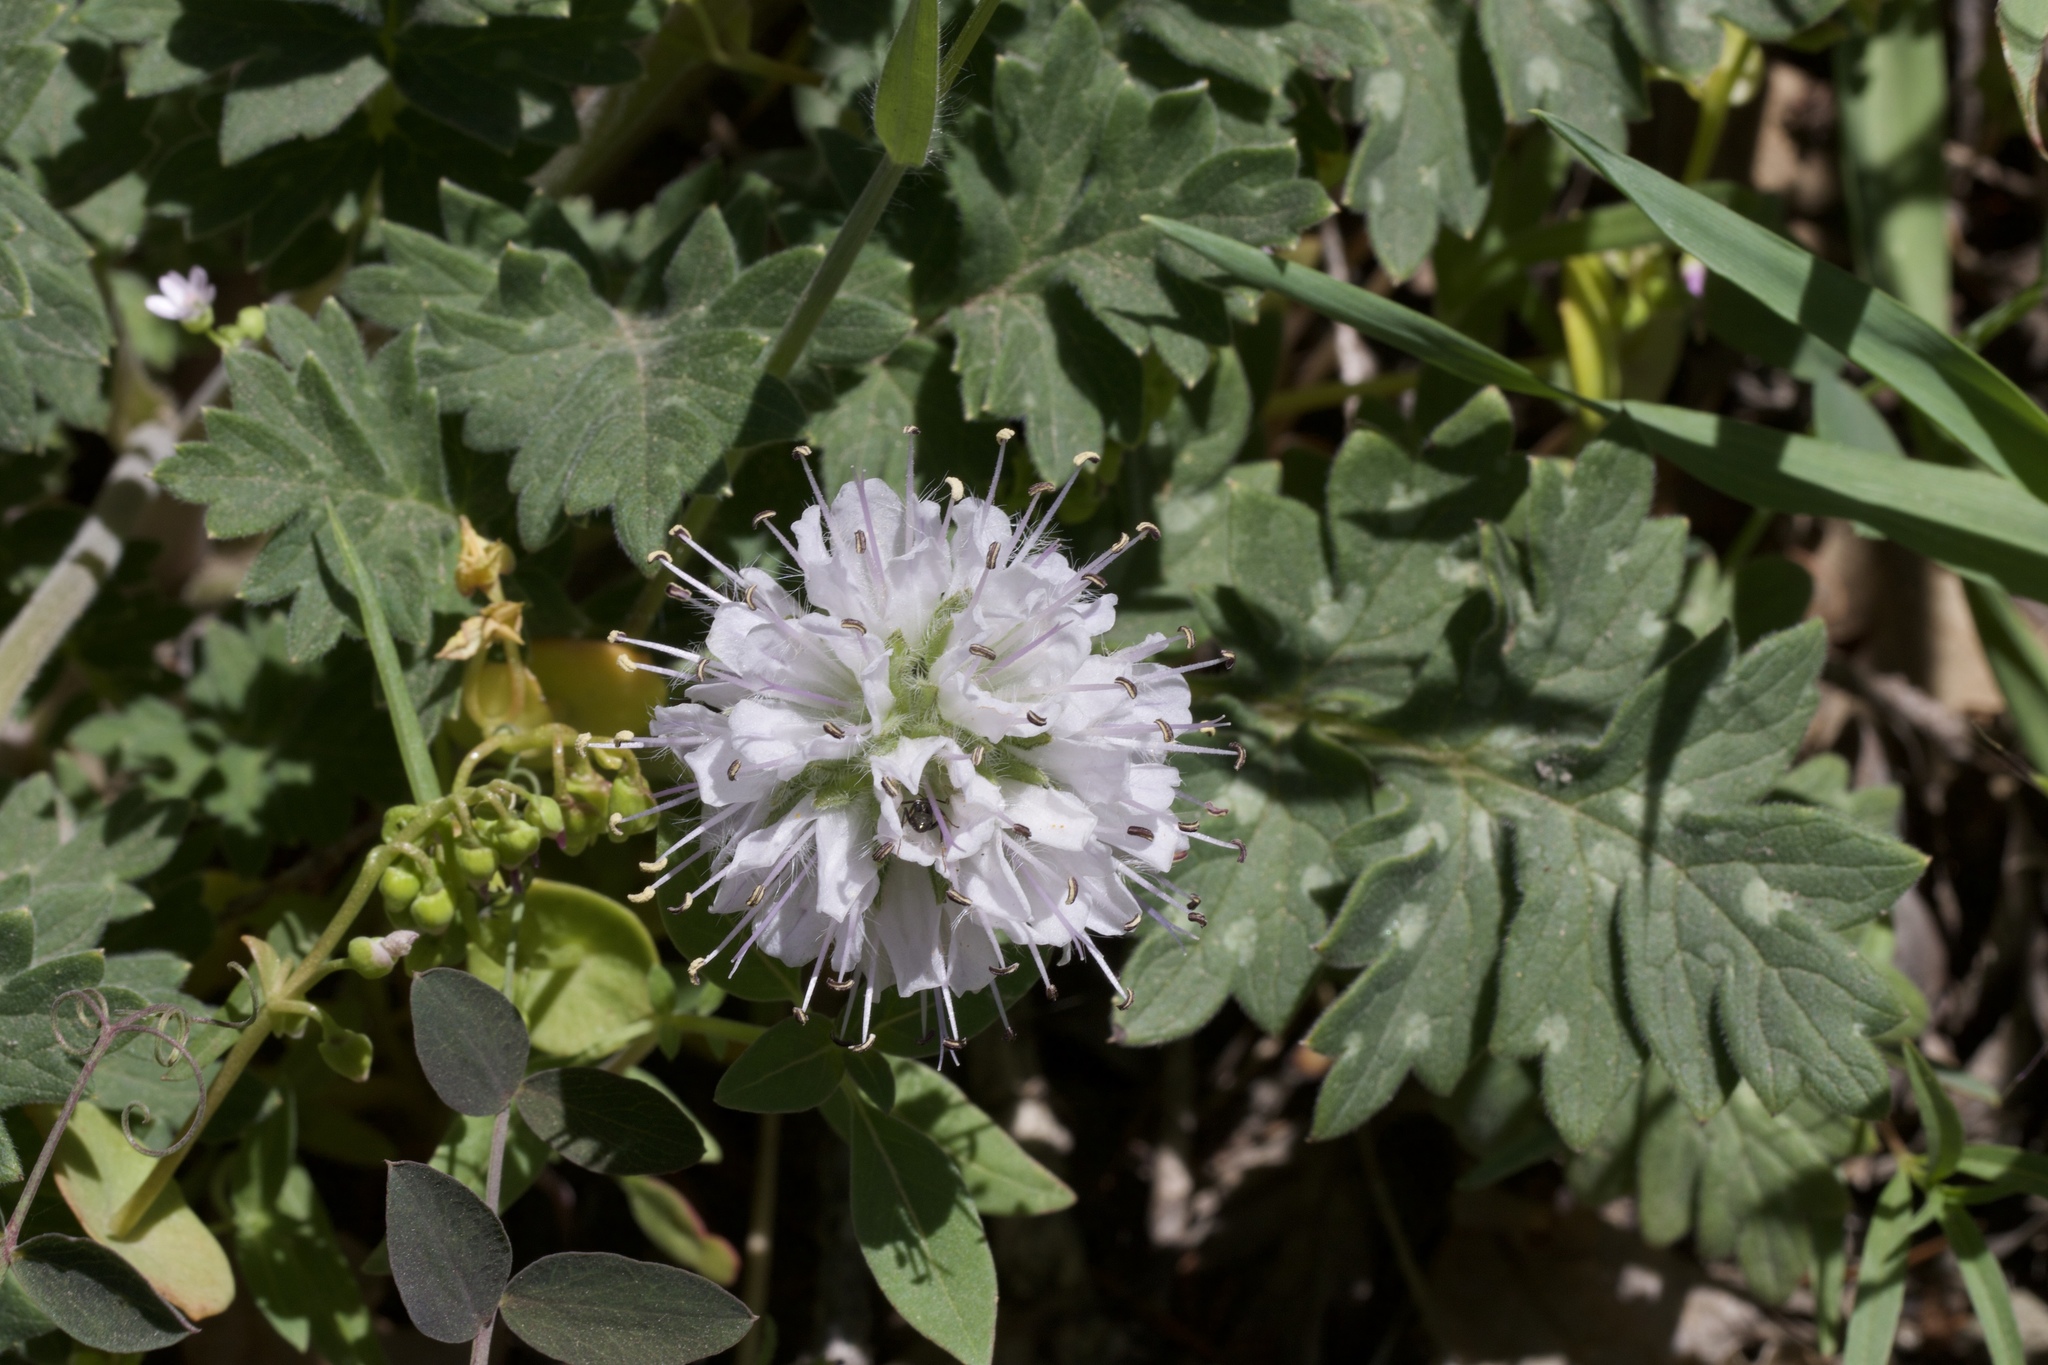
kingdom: Plantae
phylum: Tracheophyta
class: Magnoliopsida
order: Boraginales
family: Hydrophyllaceae
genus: Hydrophyllum
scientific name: Hydrophyllum occidentale
